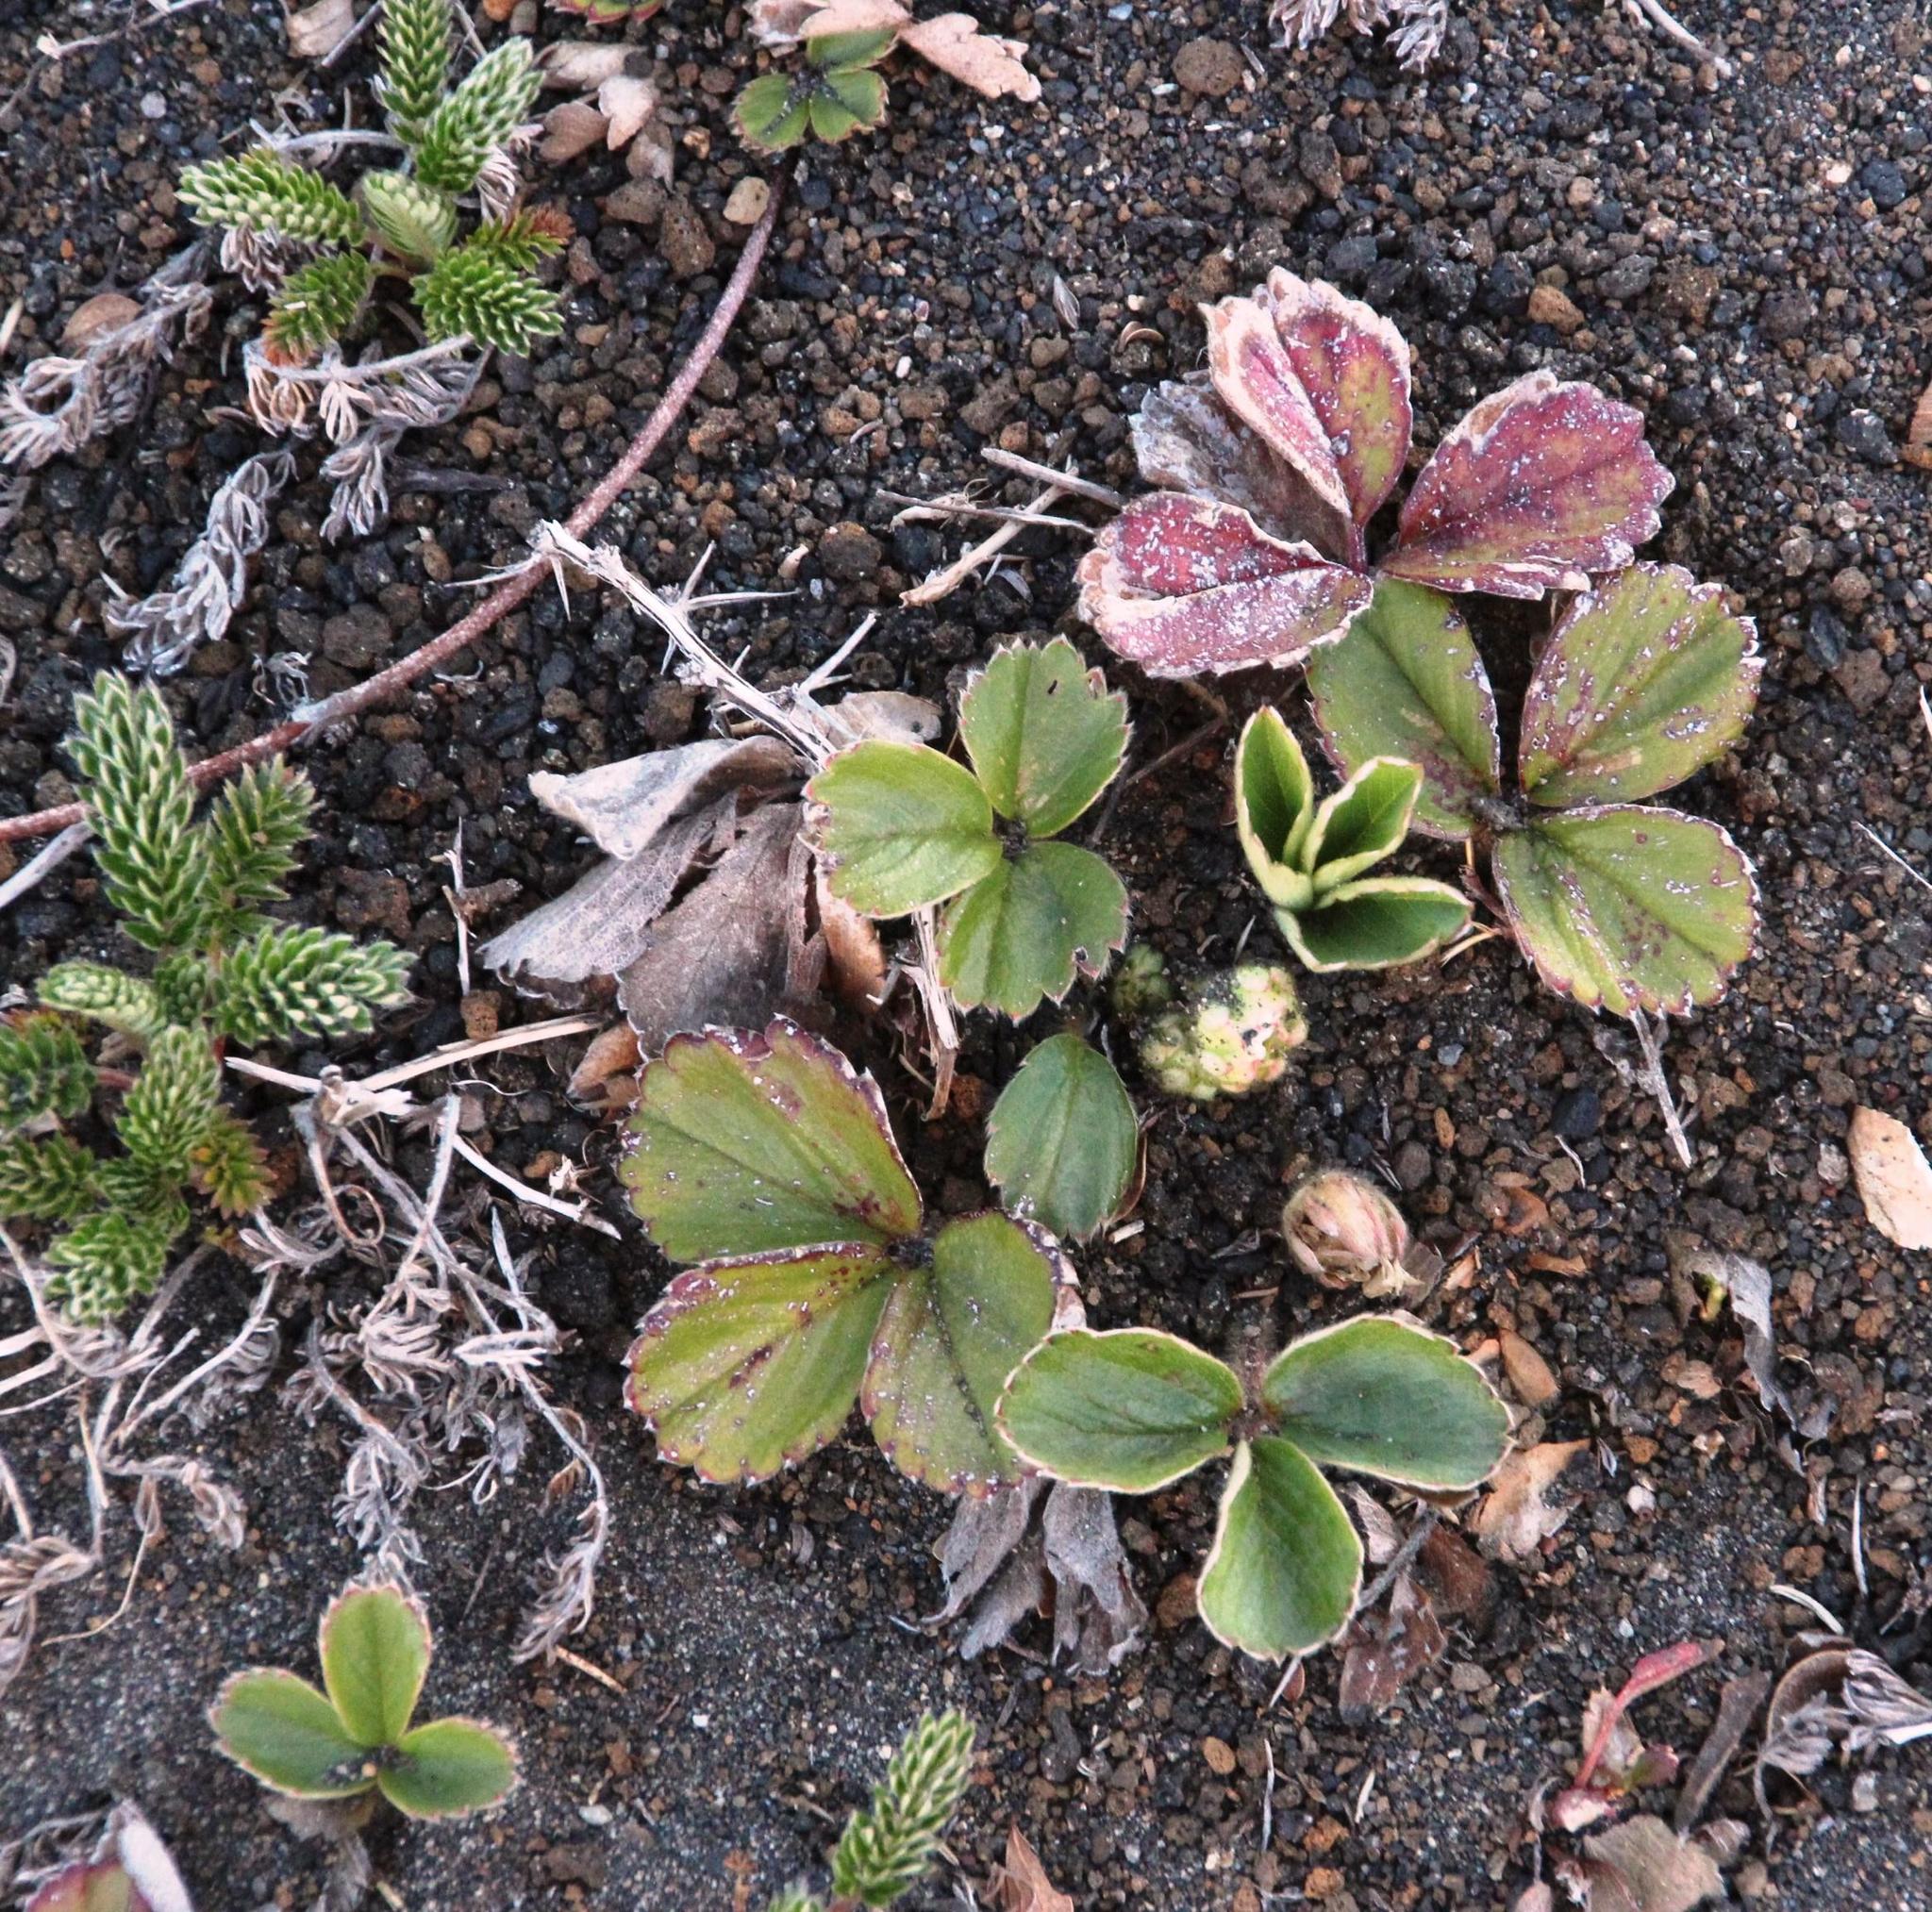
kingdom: Plantae
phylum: Tracheophyta
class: Magnoliopsida
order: Rosales
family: Rosaceae
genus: Fragaria
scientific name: Fragaria chiloensis
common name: Beach strawberry
